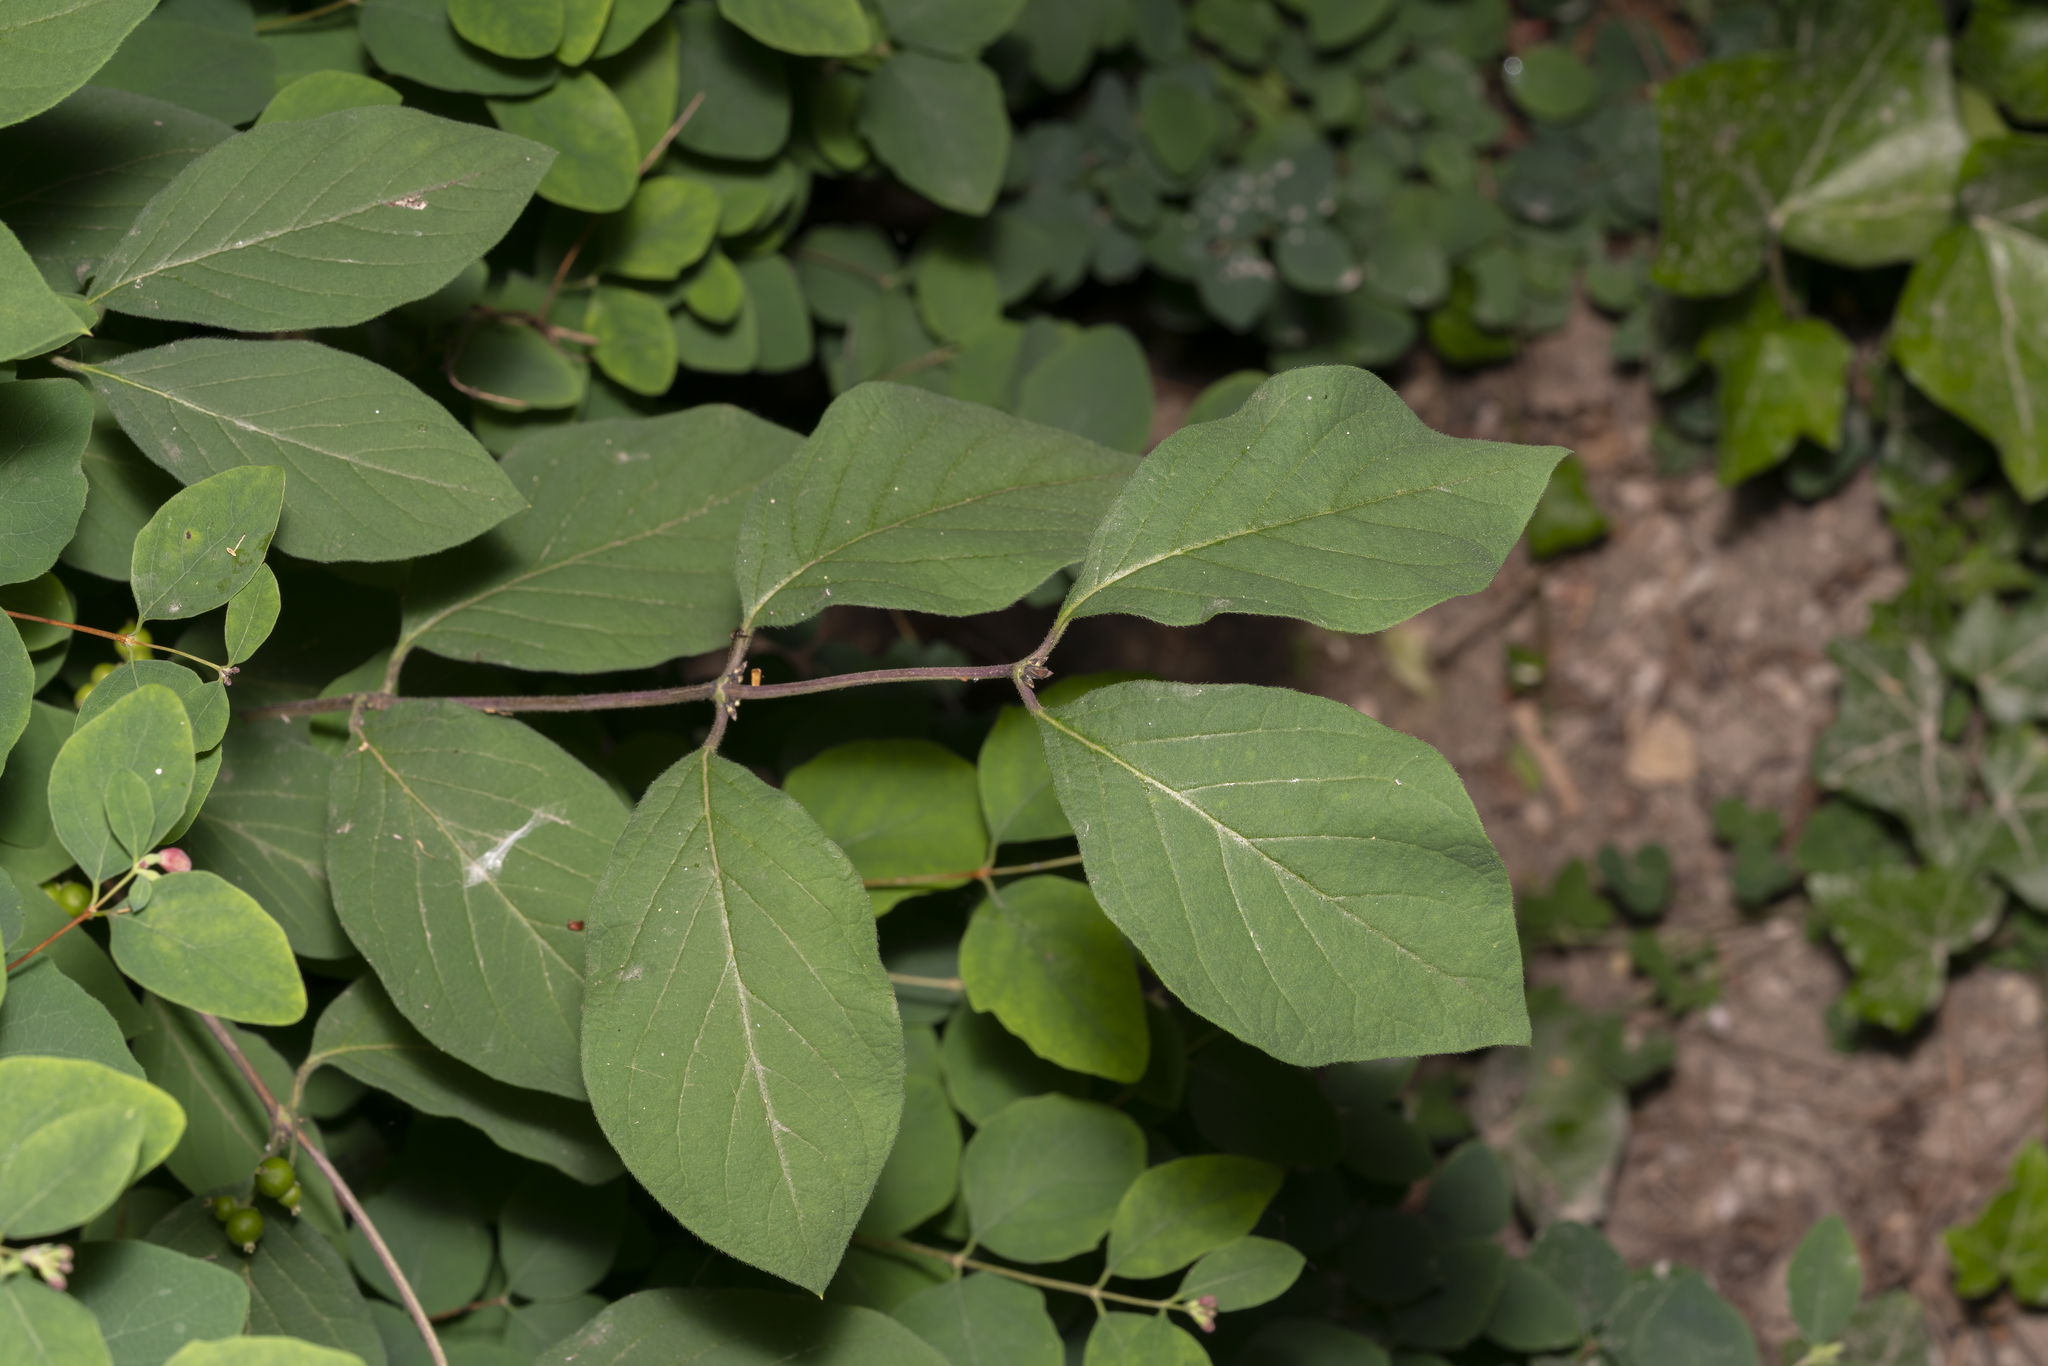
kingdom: Plantae
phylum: Tracheophyta
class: Magnoliopsida
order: Dipsacales
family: Caprifoliaceae
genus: Lonicera
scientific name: Lonicera xylosteum
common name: Fly honeysuckle
